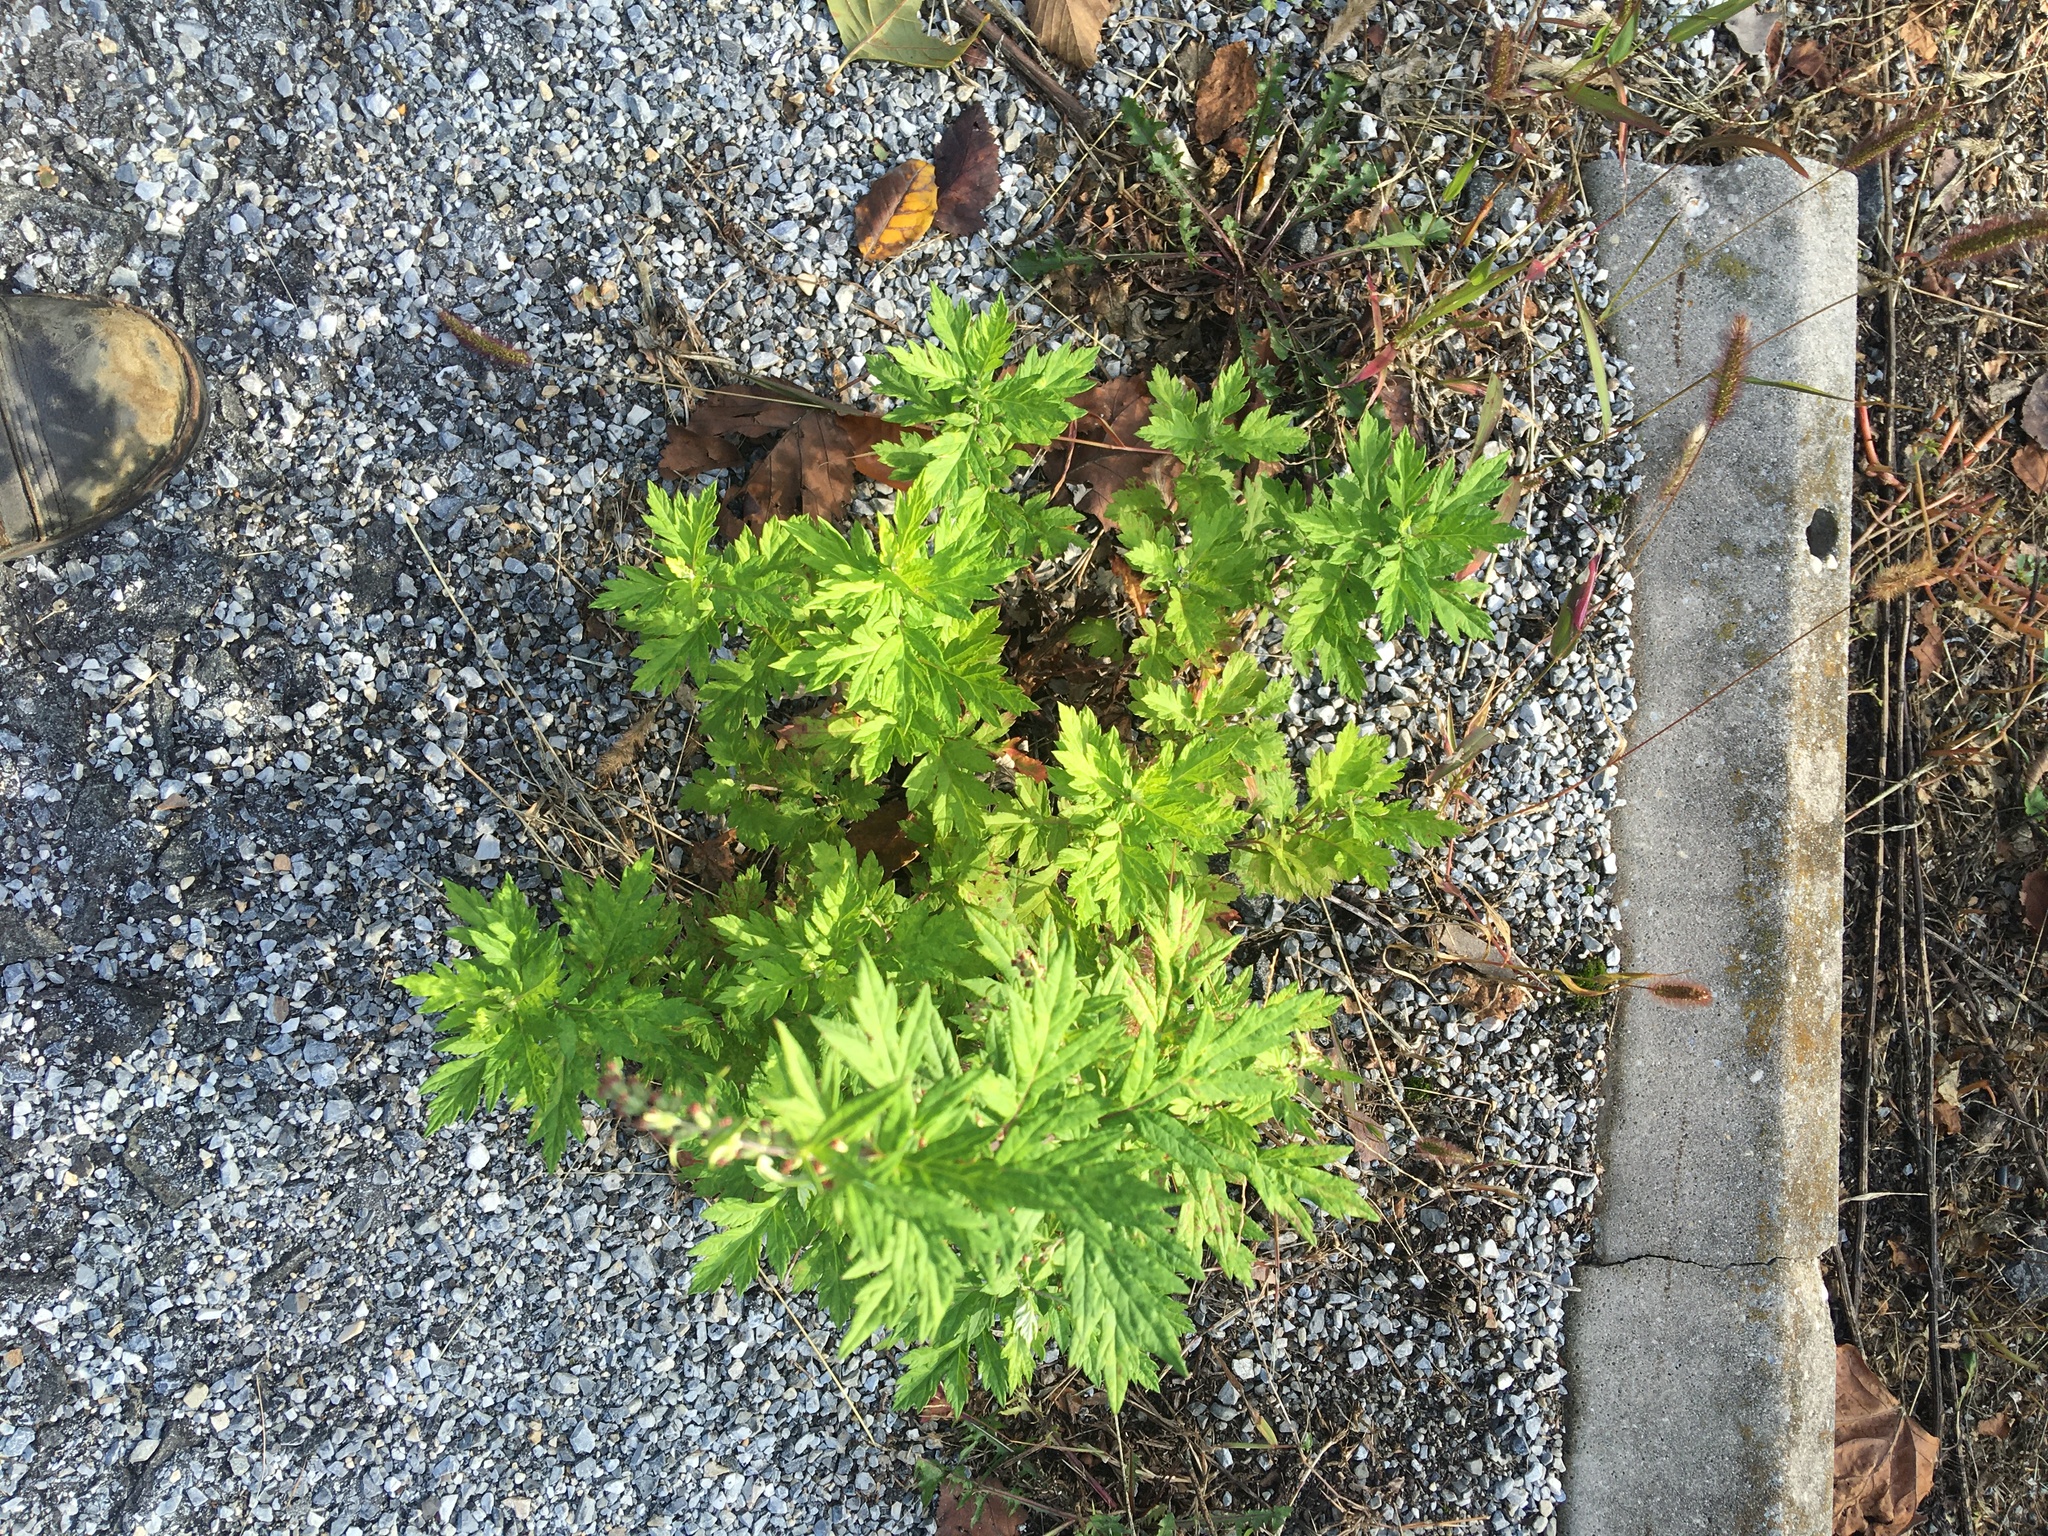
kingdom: Plantae
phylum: Tracheophyta
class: Magnoliopsida
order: Asterales
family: Asteraceae
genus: Artemisia
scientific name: Artemisia vulgaris
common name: Mugwort
